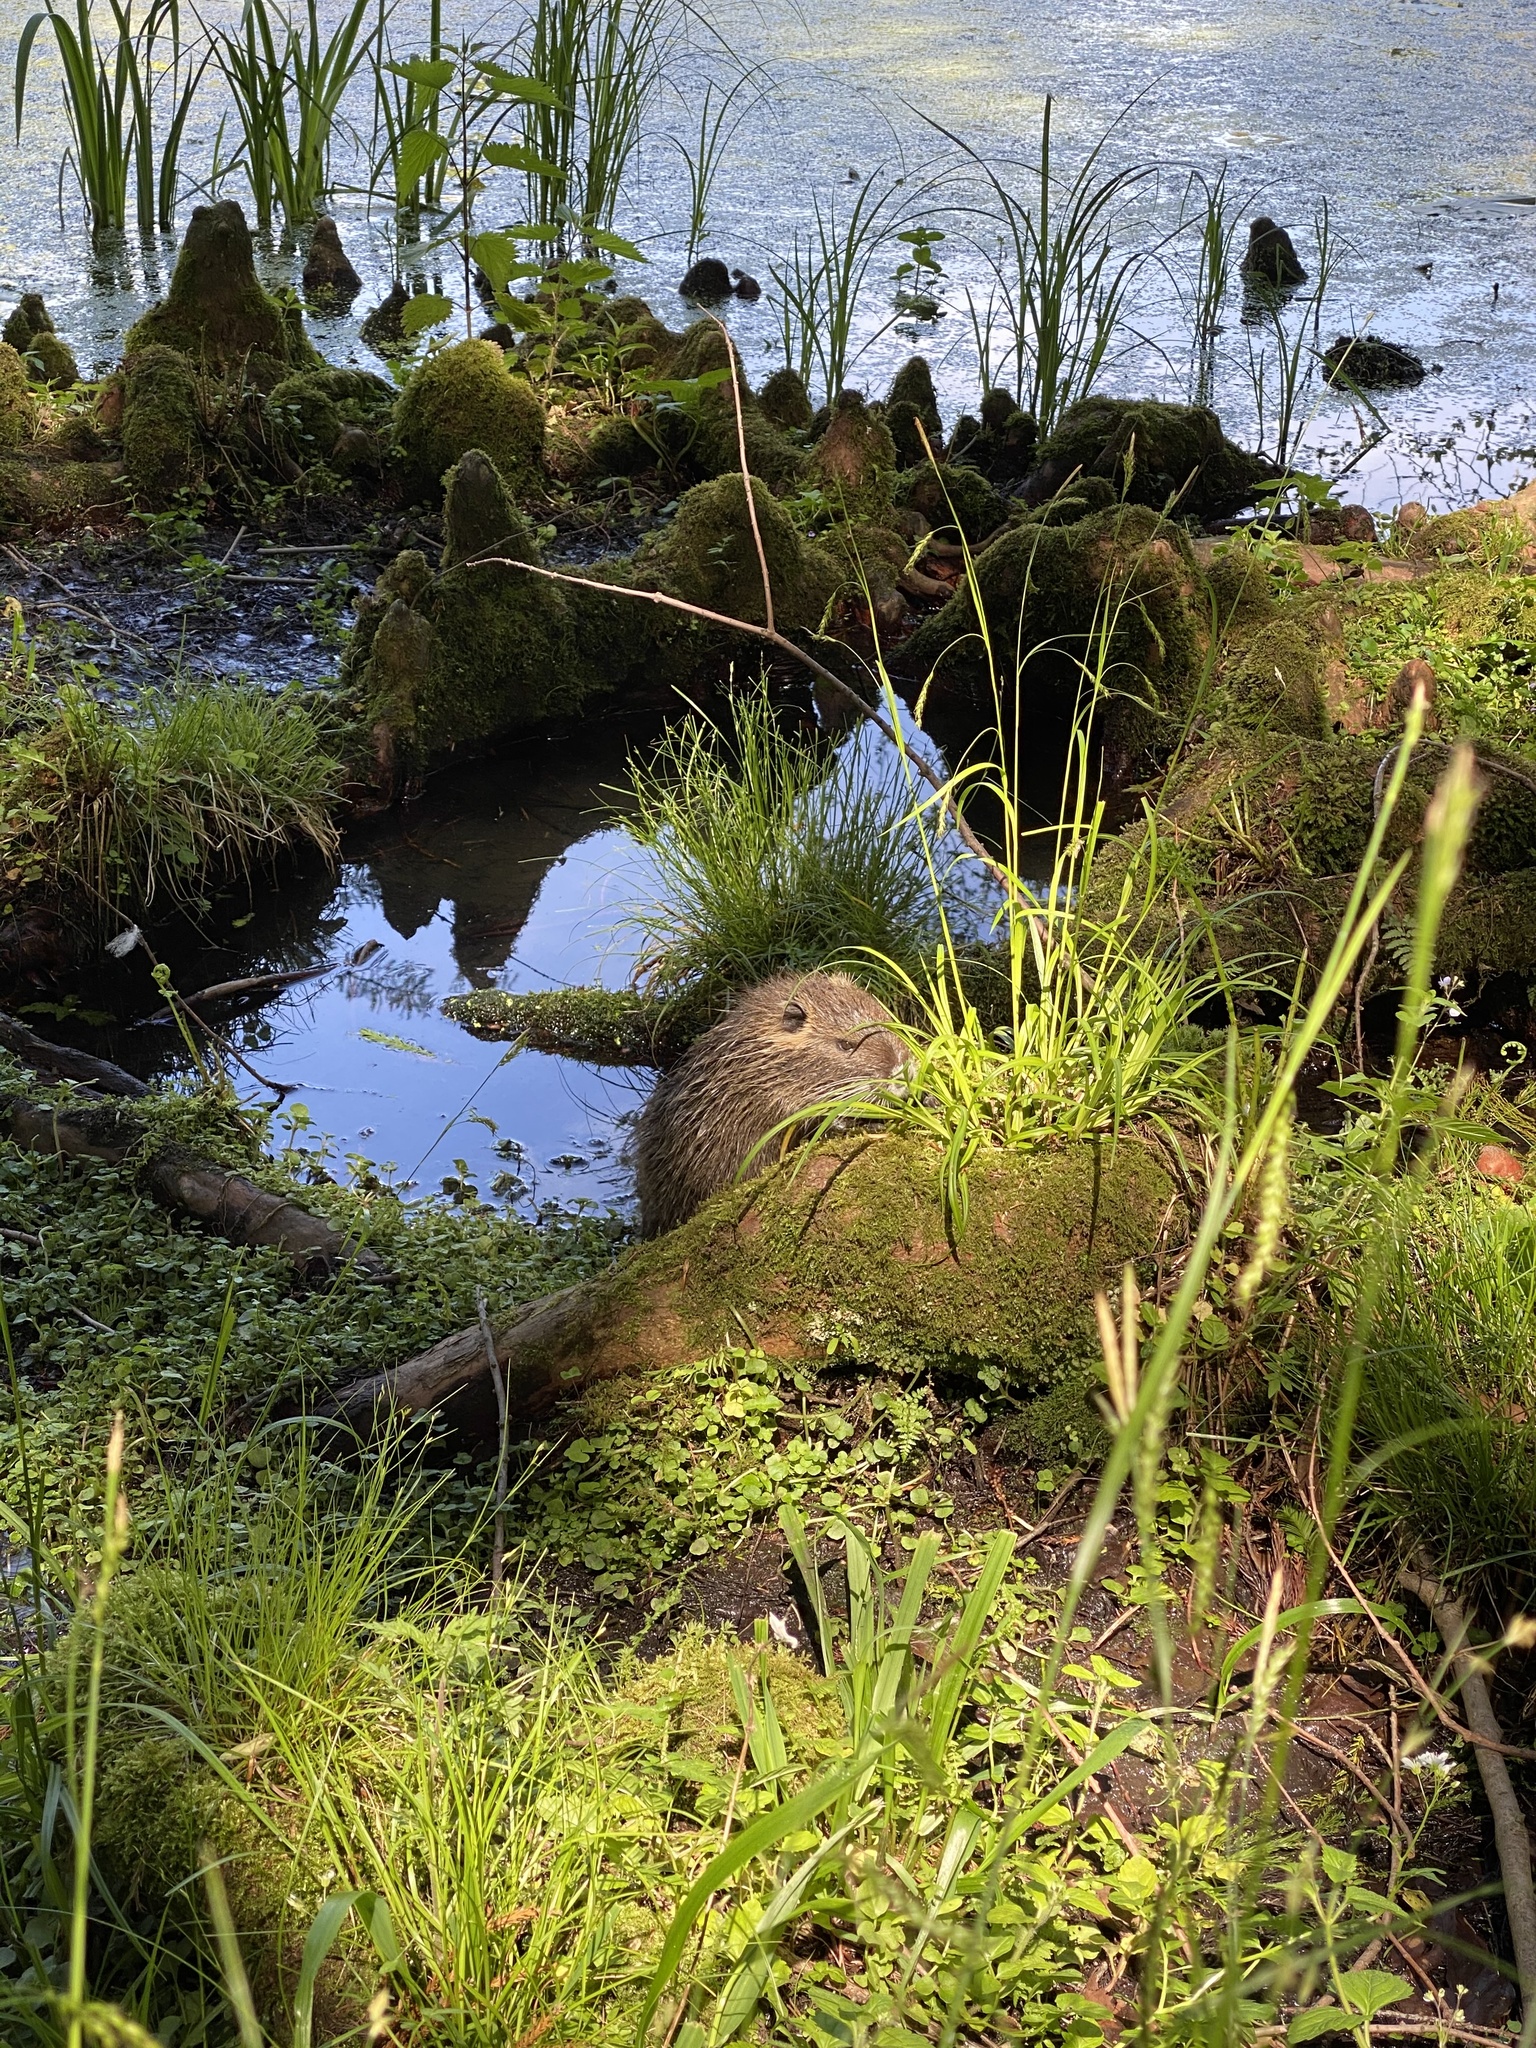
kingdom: Animalia
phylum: Chordata
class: Mammalia
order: Rodentia
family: Myocastoridae
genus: Myocastor
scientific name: Myocastor coypus
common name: Coypu
